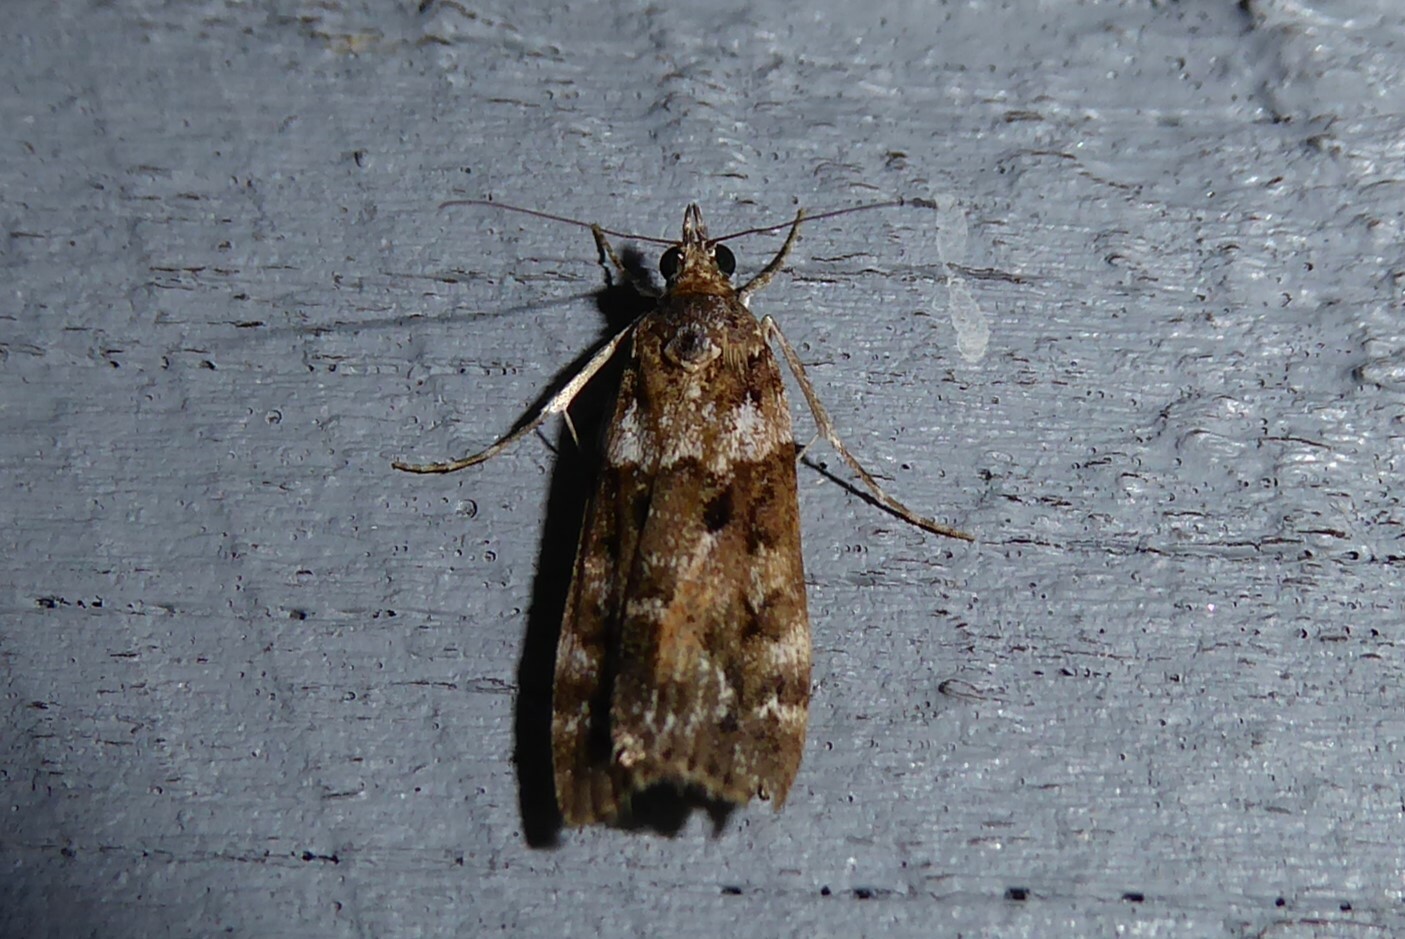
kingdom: Animalia
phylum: Arthropoda
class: Insecta
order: Lepidoptera
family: Crambidae
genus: Eudonia
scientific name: Eudonia submarginalis
